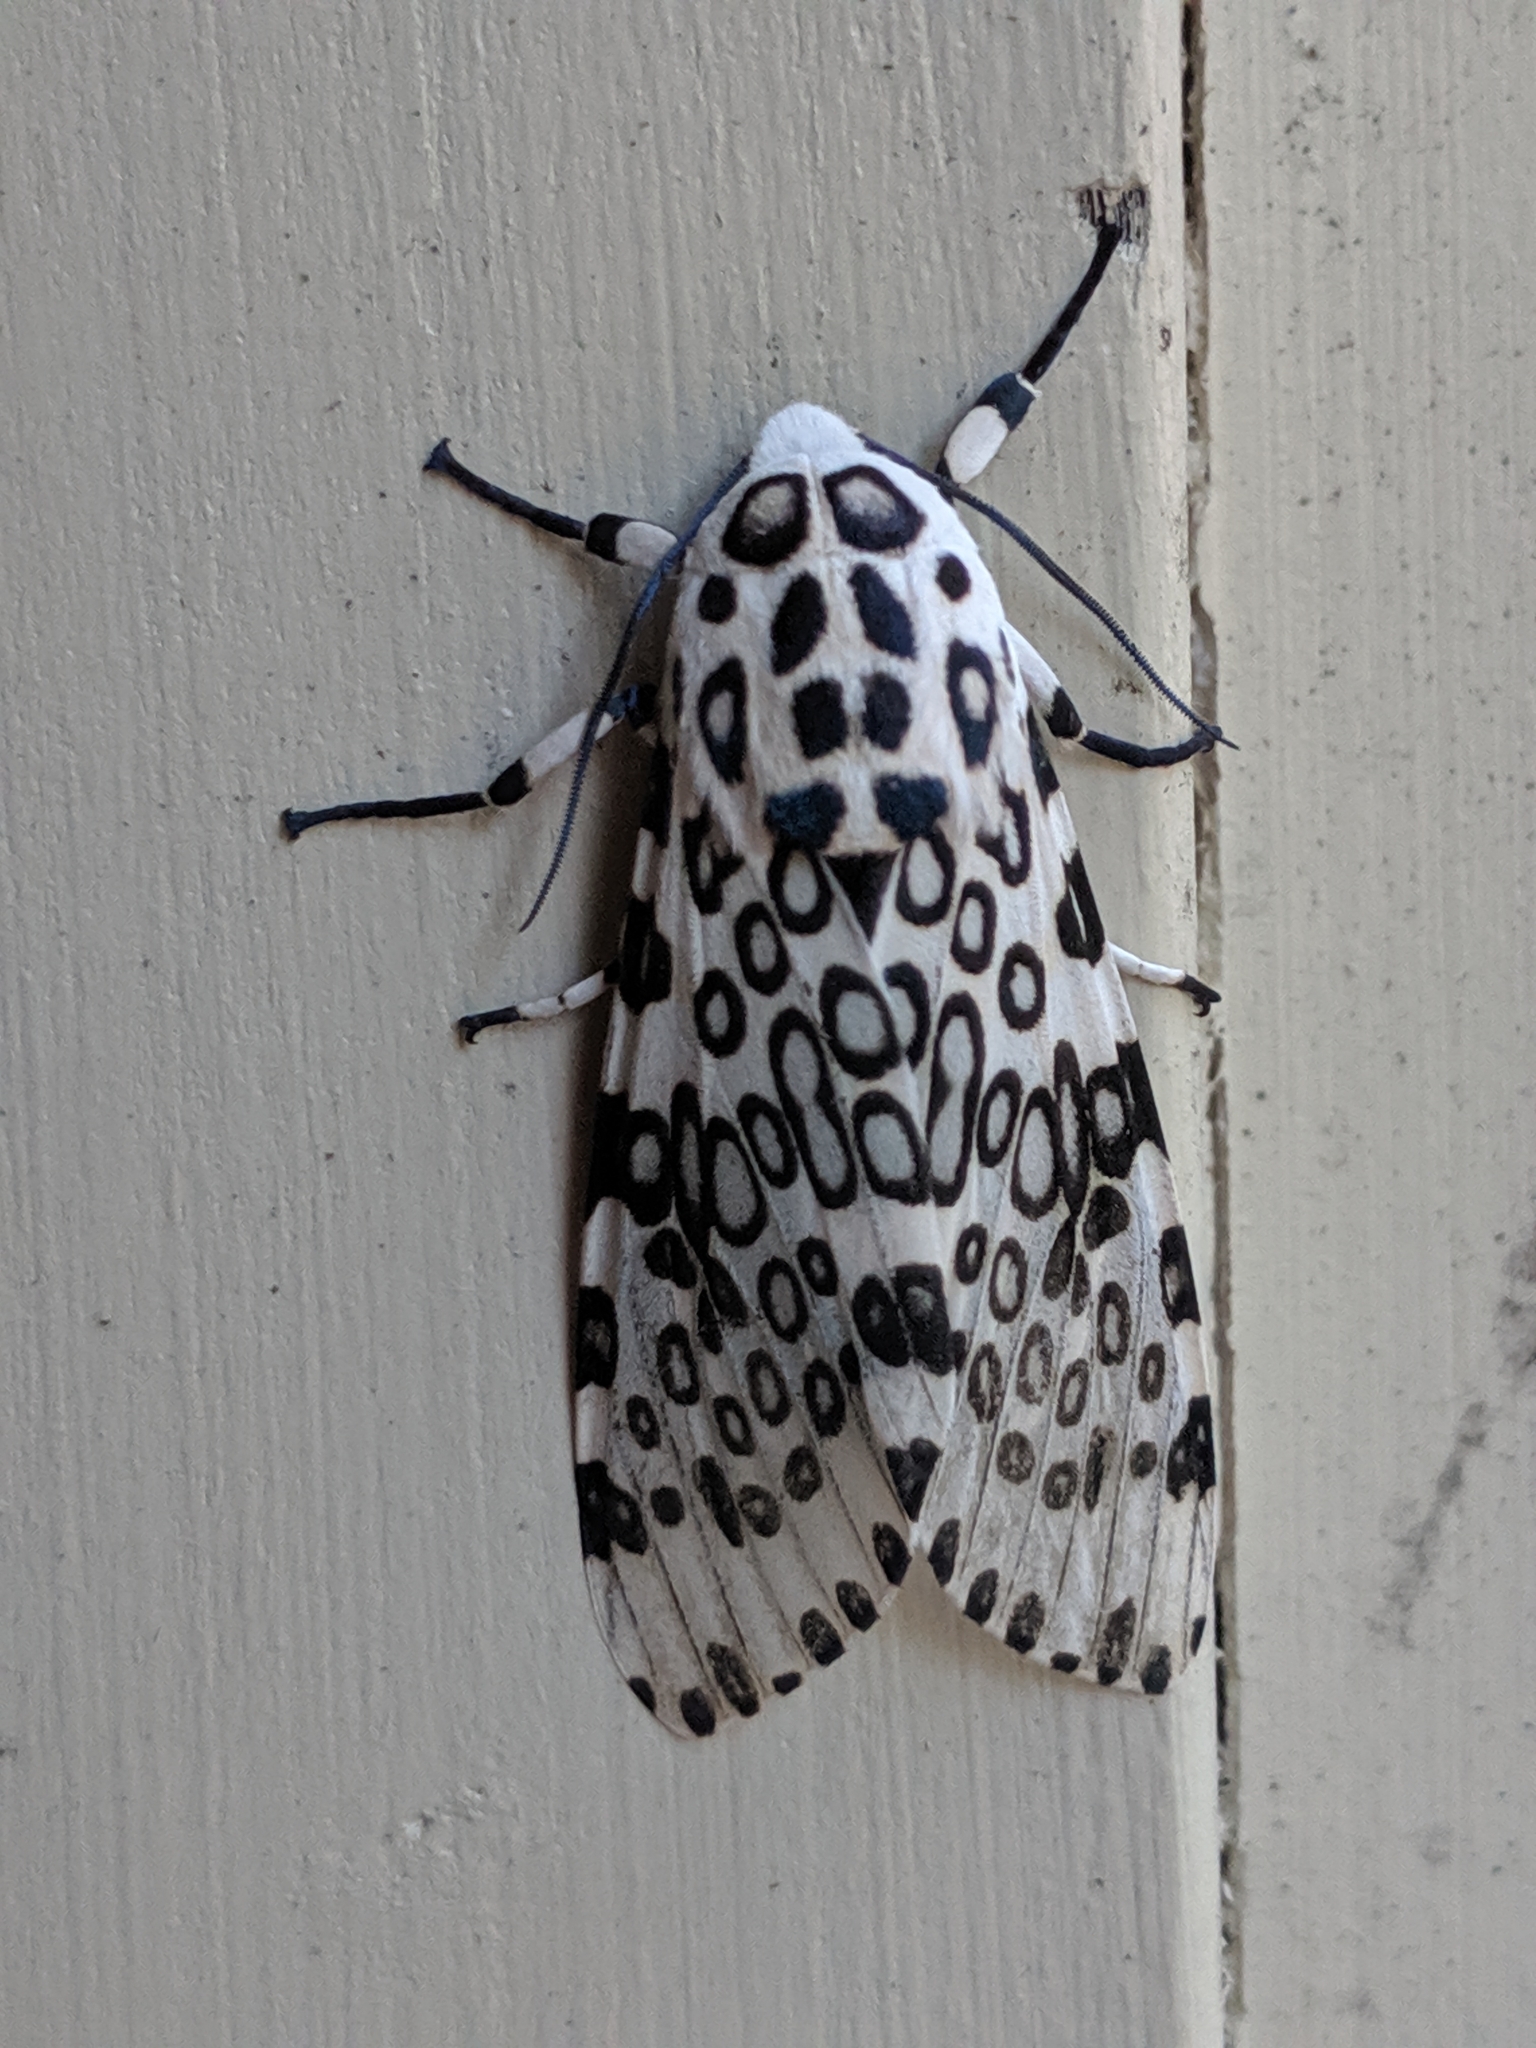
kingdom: Animalia
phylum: Arthropoda
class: Insecta
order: Lepidoptera
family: Erebidae
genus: Hypercompe
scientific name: Hypercompe scribonia
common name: Giant leopard moth
